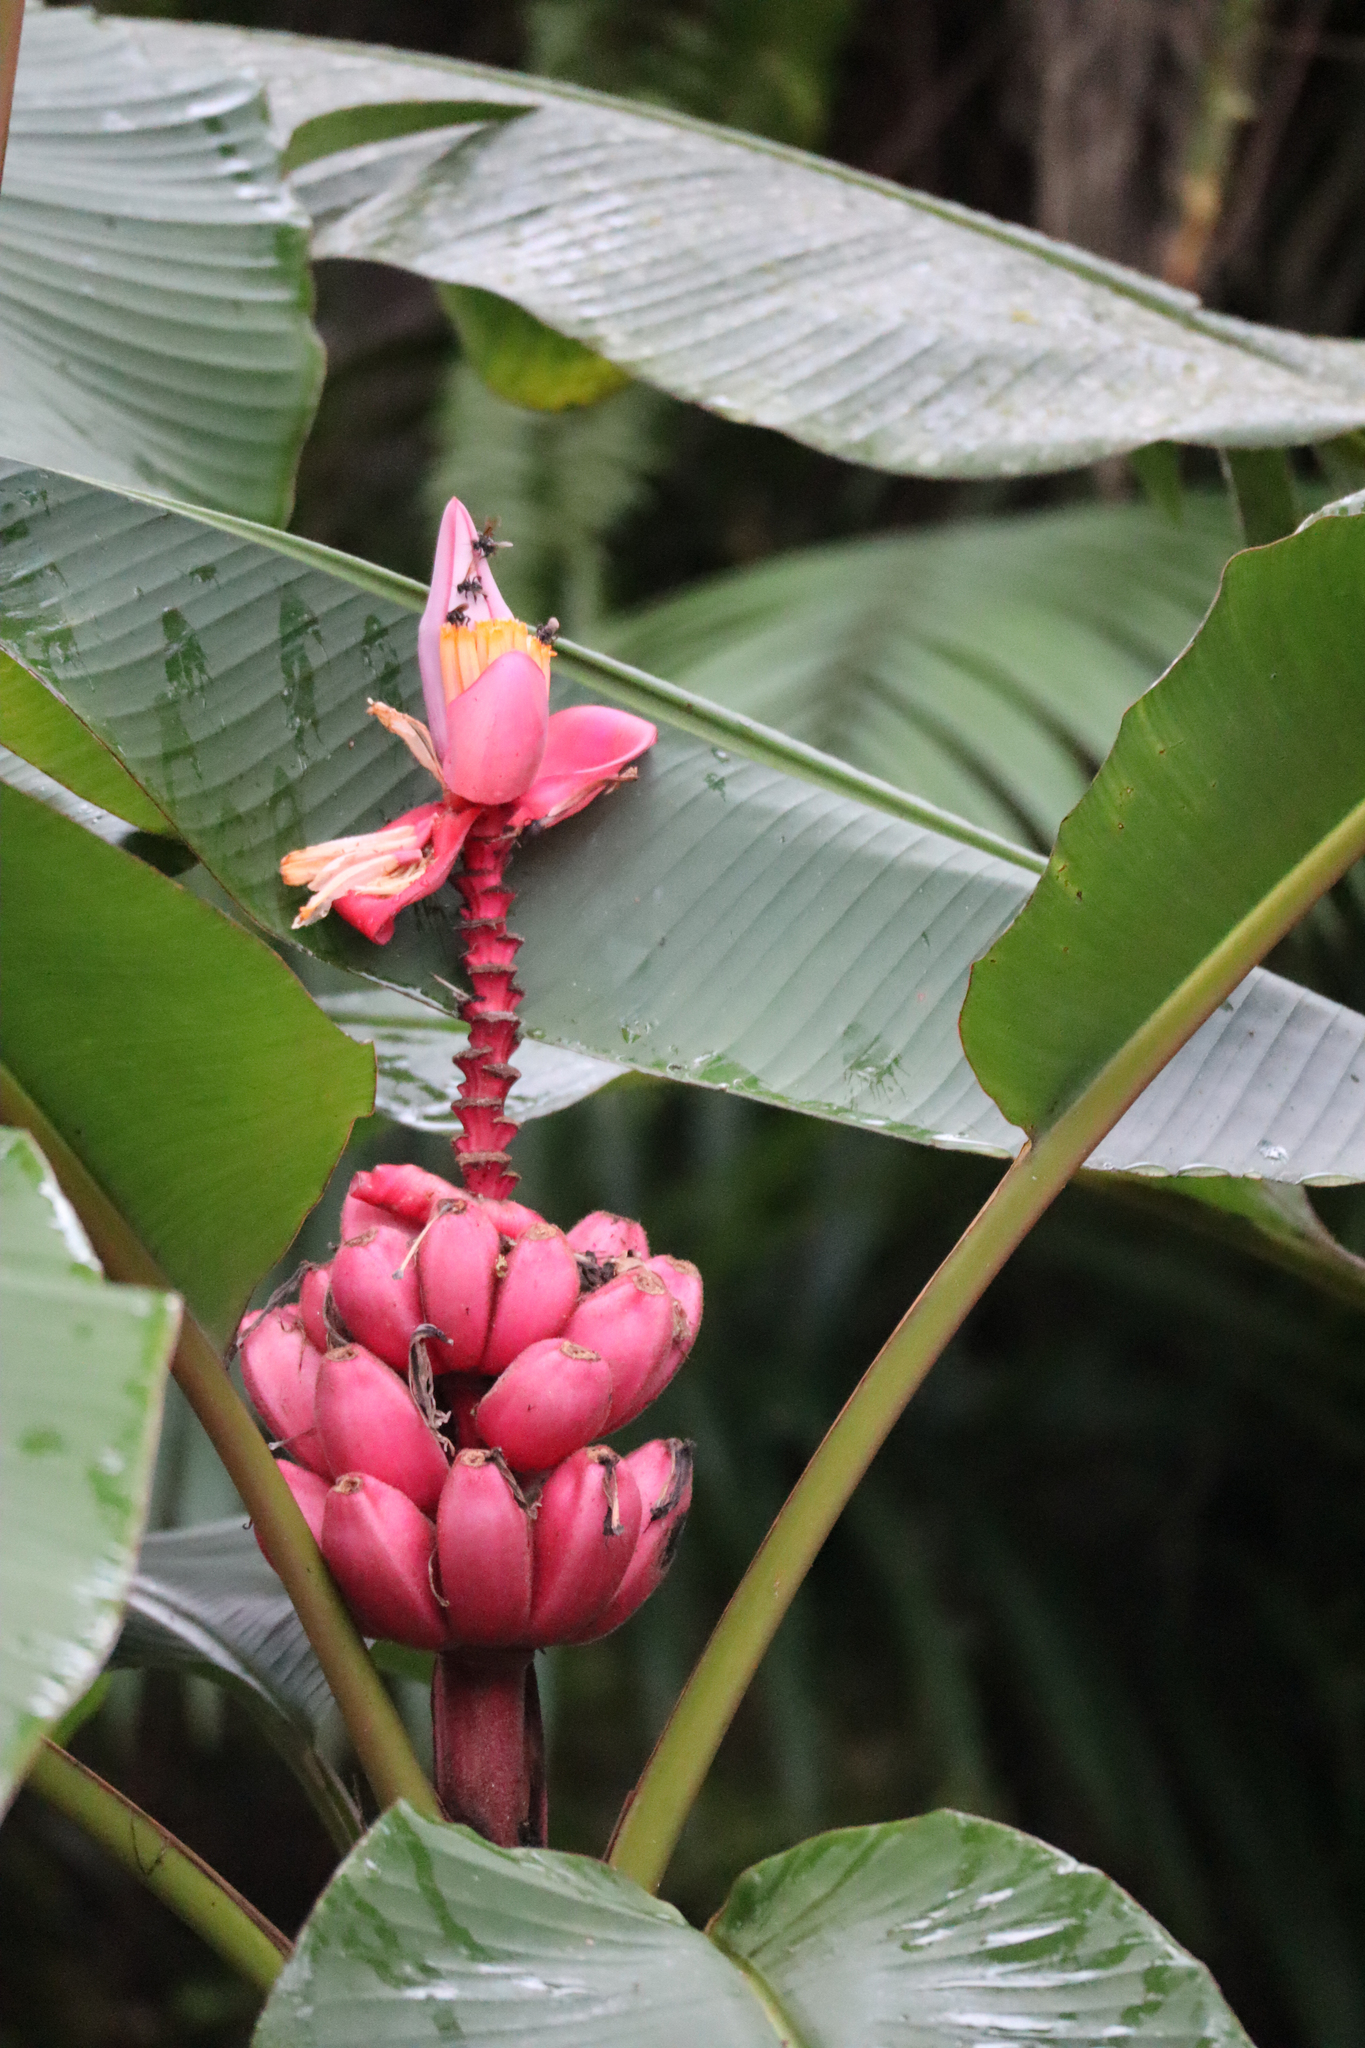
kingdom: Plantae
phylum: Tracheophyta
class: Liliopsida
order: Zingiberales
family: Musaceae
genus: Musa
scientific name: Musa velutina
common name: Pink velvet banana
